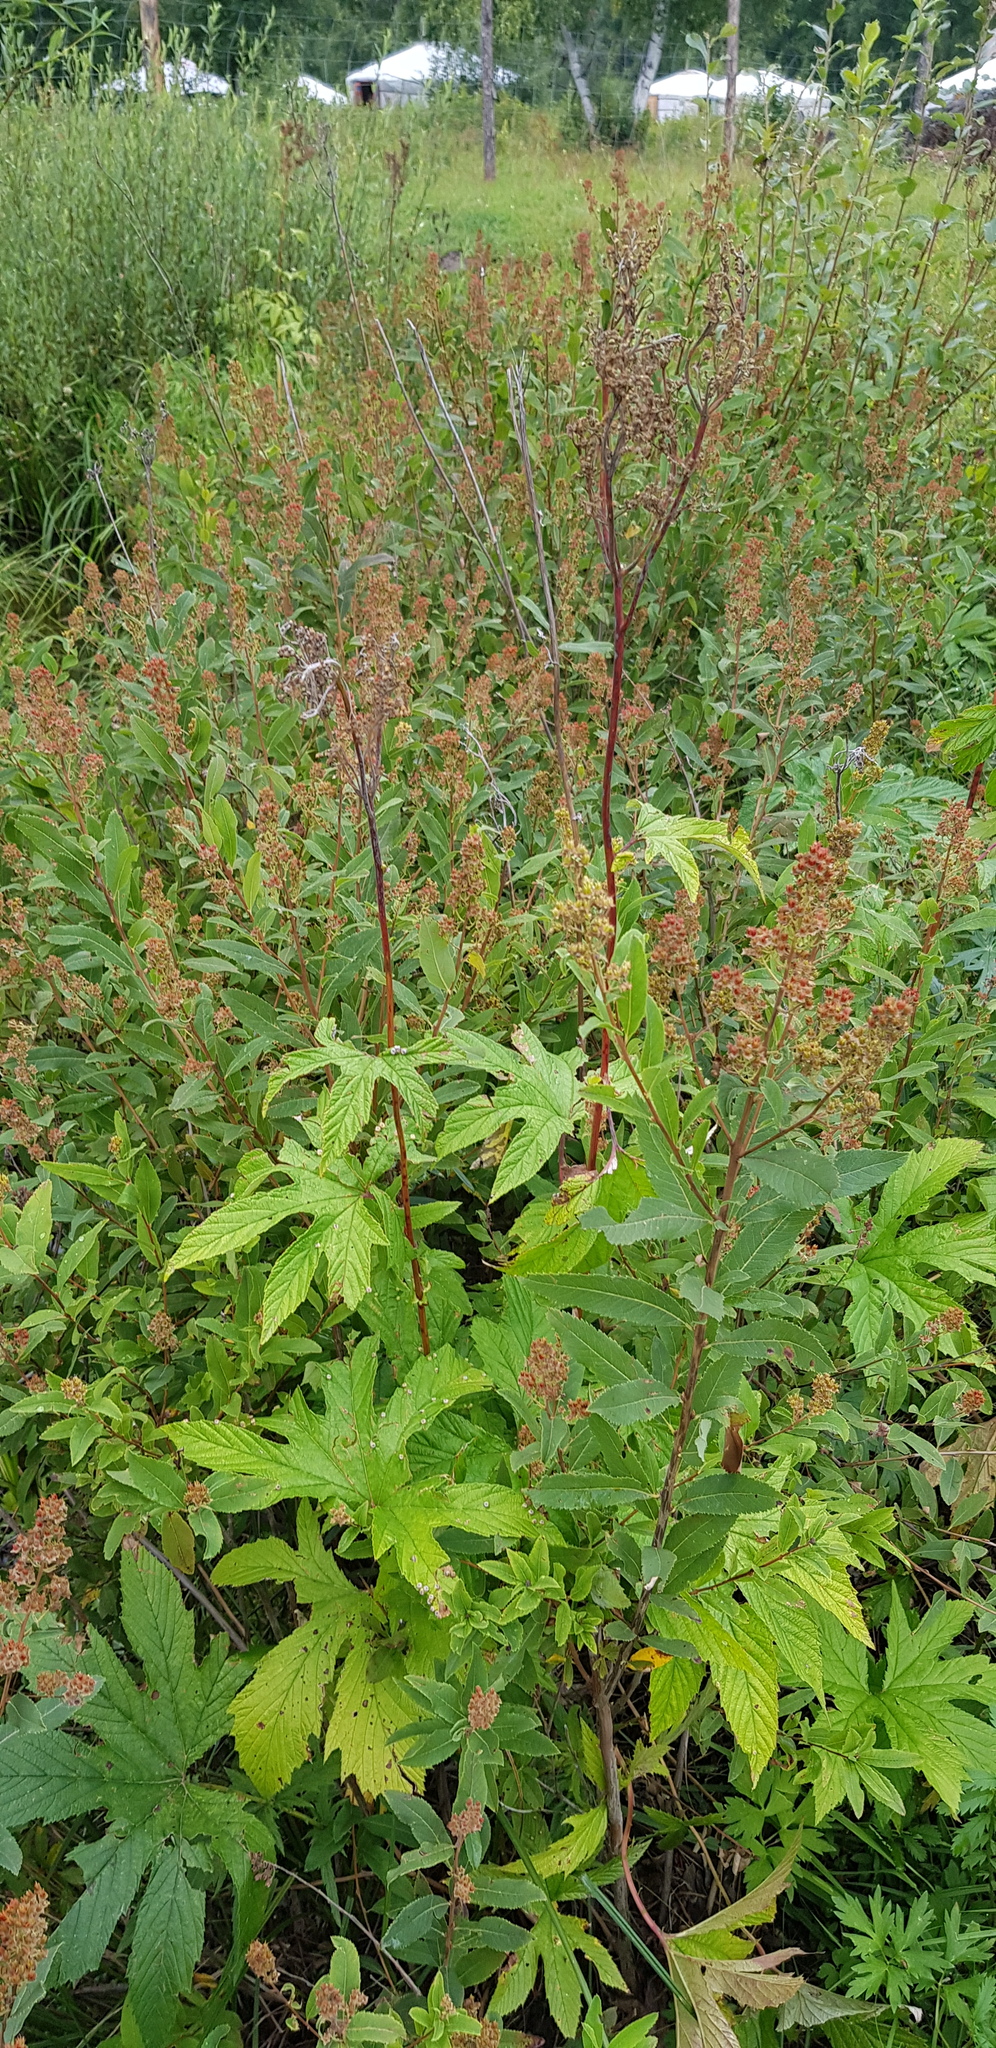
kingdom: Plantae
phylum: Tracheophyta
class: Magnoliopsida
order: Rosales
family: Rosaceae
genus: Filipendula
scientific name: Filipendula digitata
